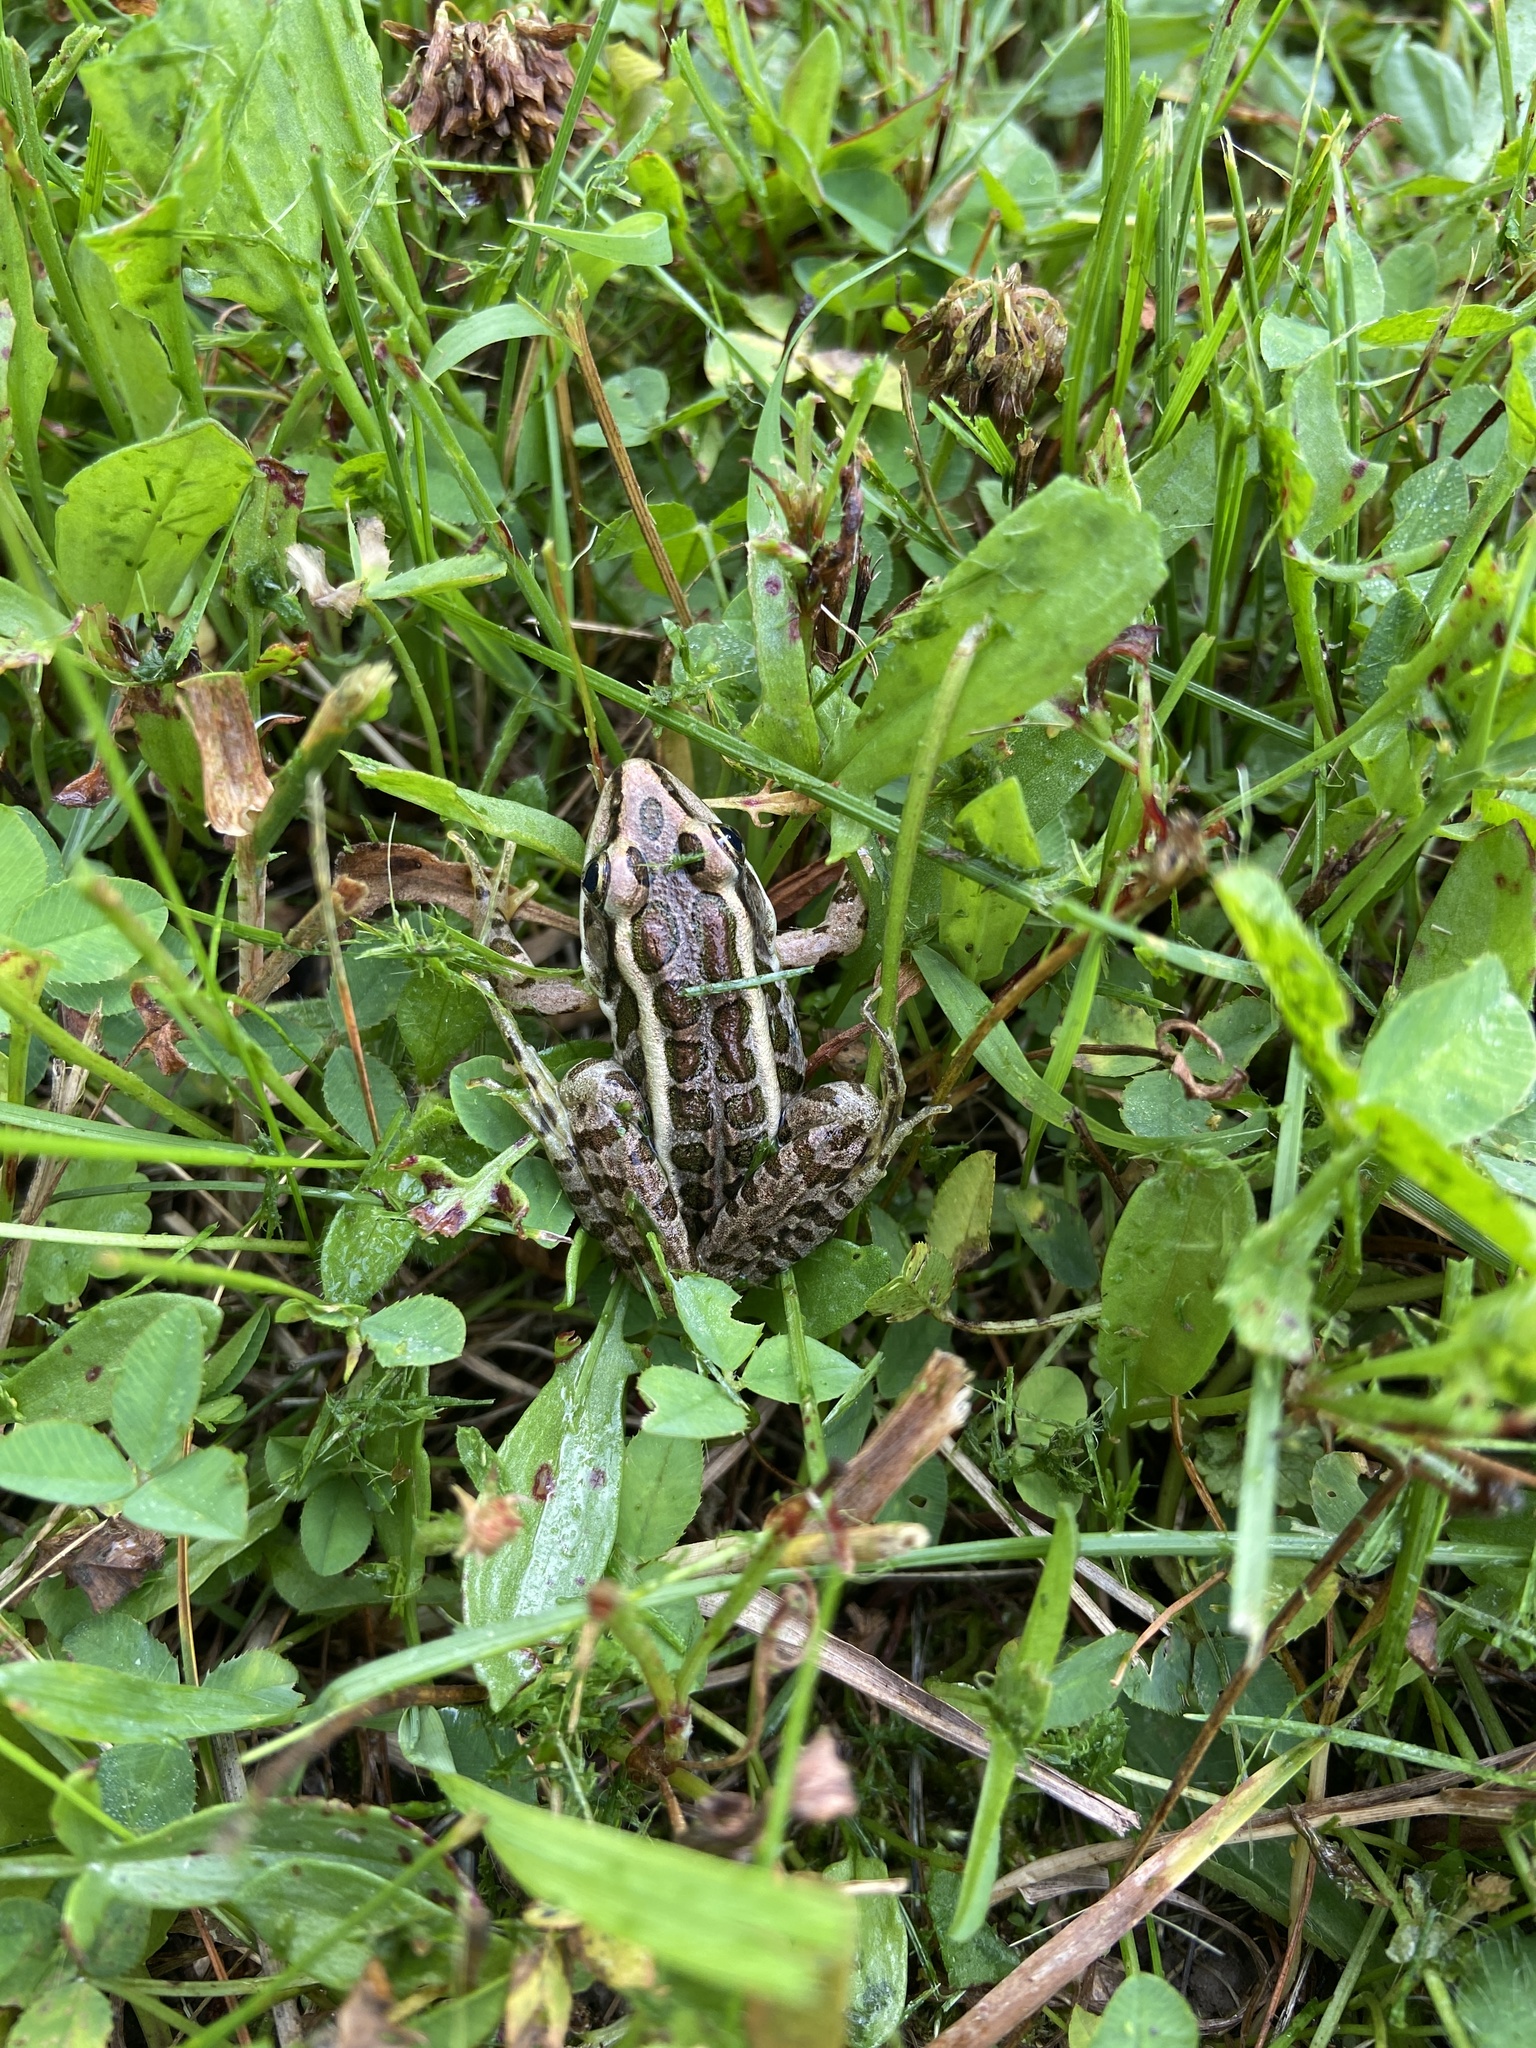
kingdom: Animalia
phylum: Chordata
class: Amphibia
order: Anura
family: Ranidae
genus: Lithobates
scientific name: Lithobates palustris
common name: Pickerel frog
